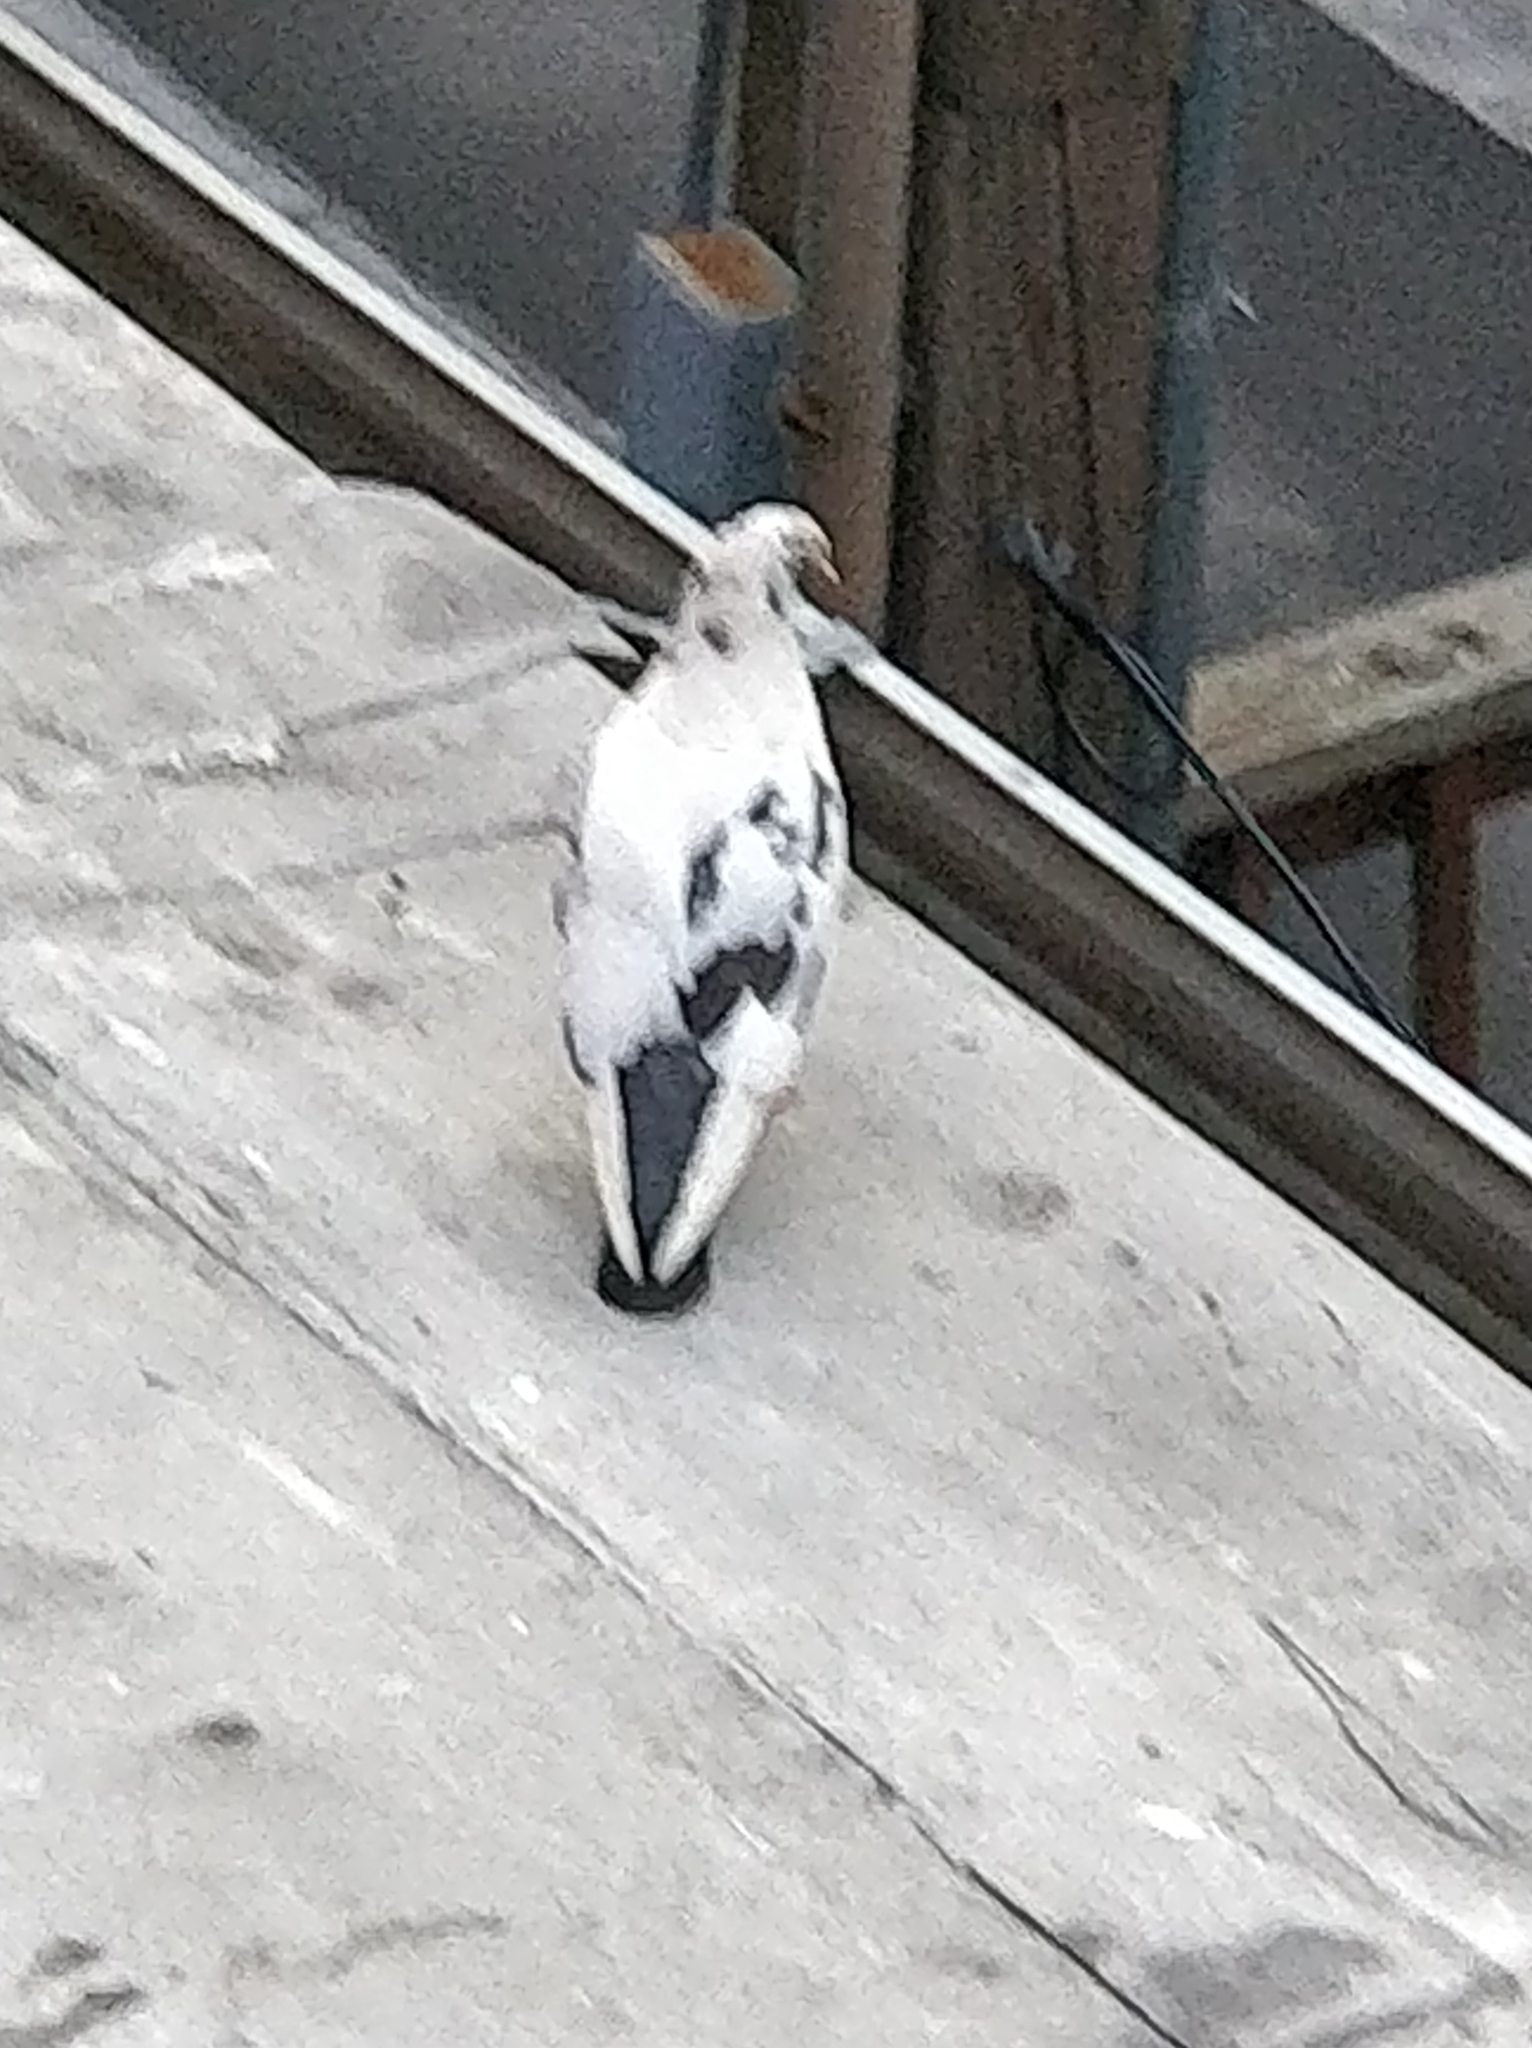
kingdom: Animalia
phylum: Chordata
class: Aves
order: Columbiformes
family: Columbidae
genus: Columba
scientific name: Columba livia
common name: Rock pigeon
